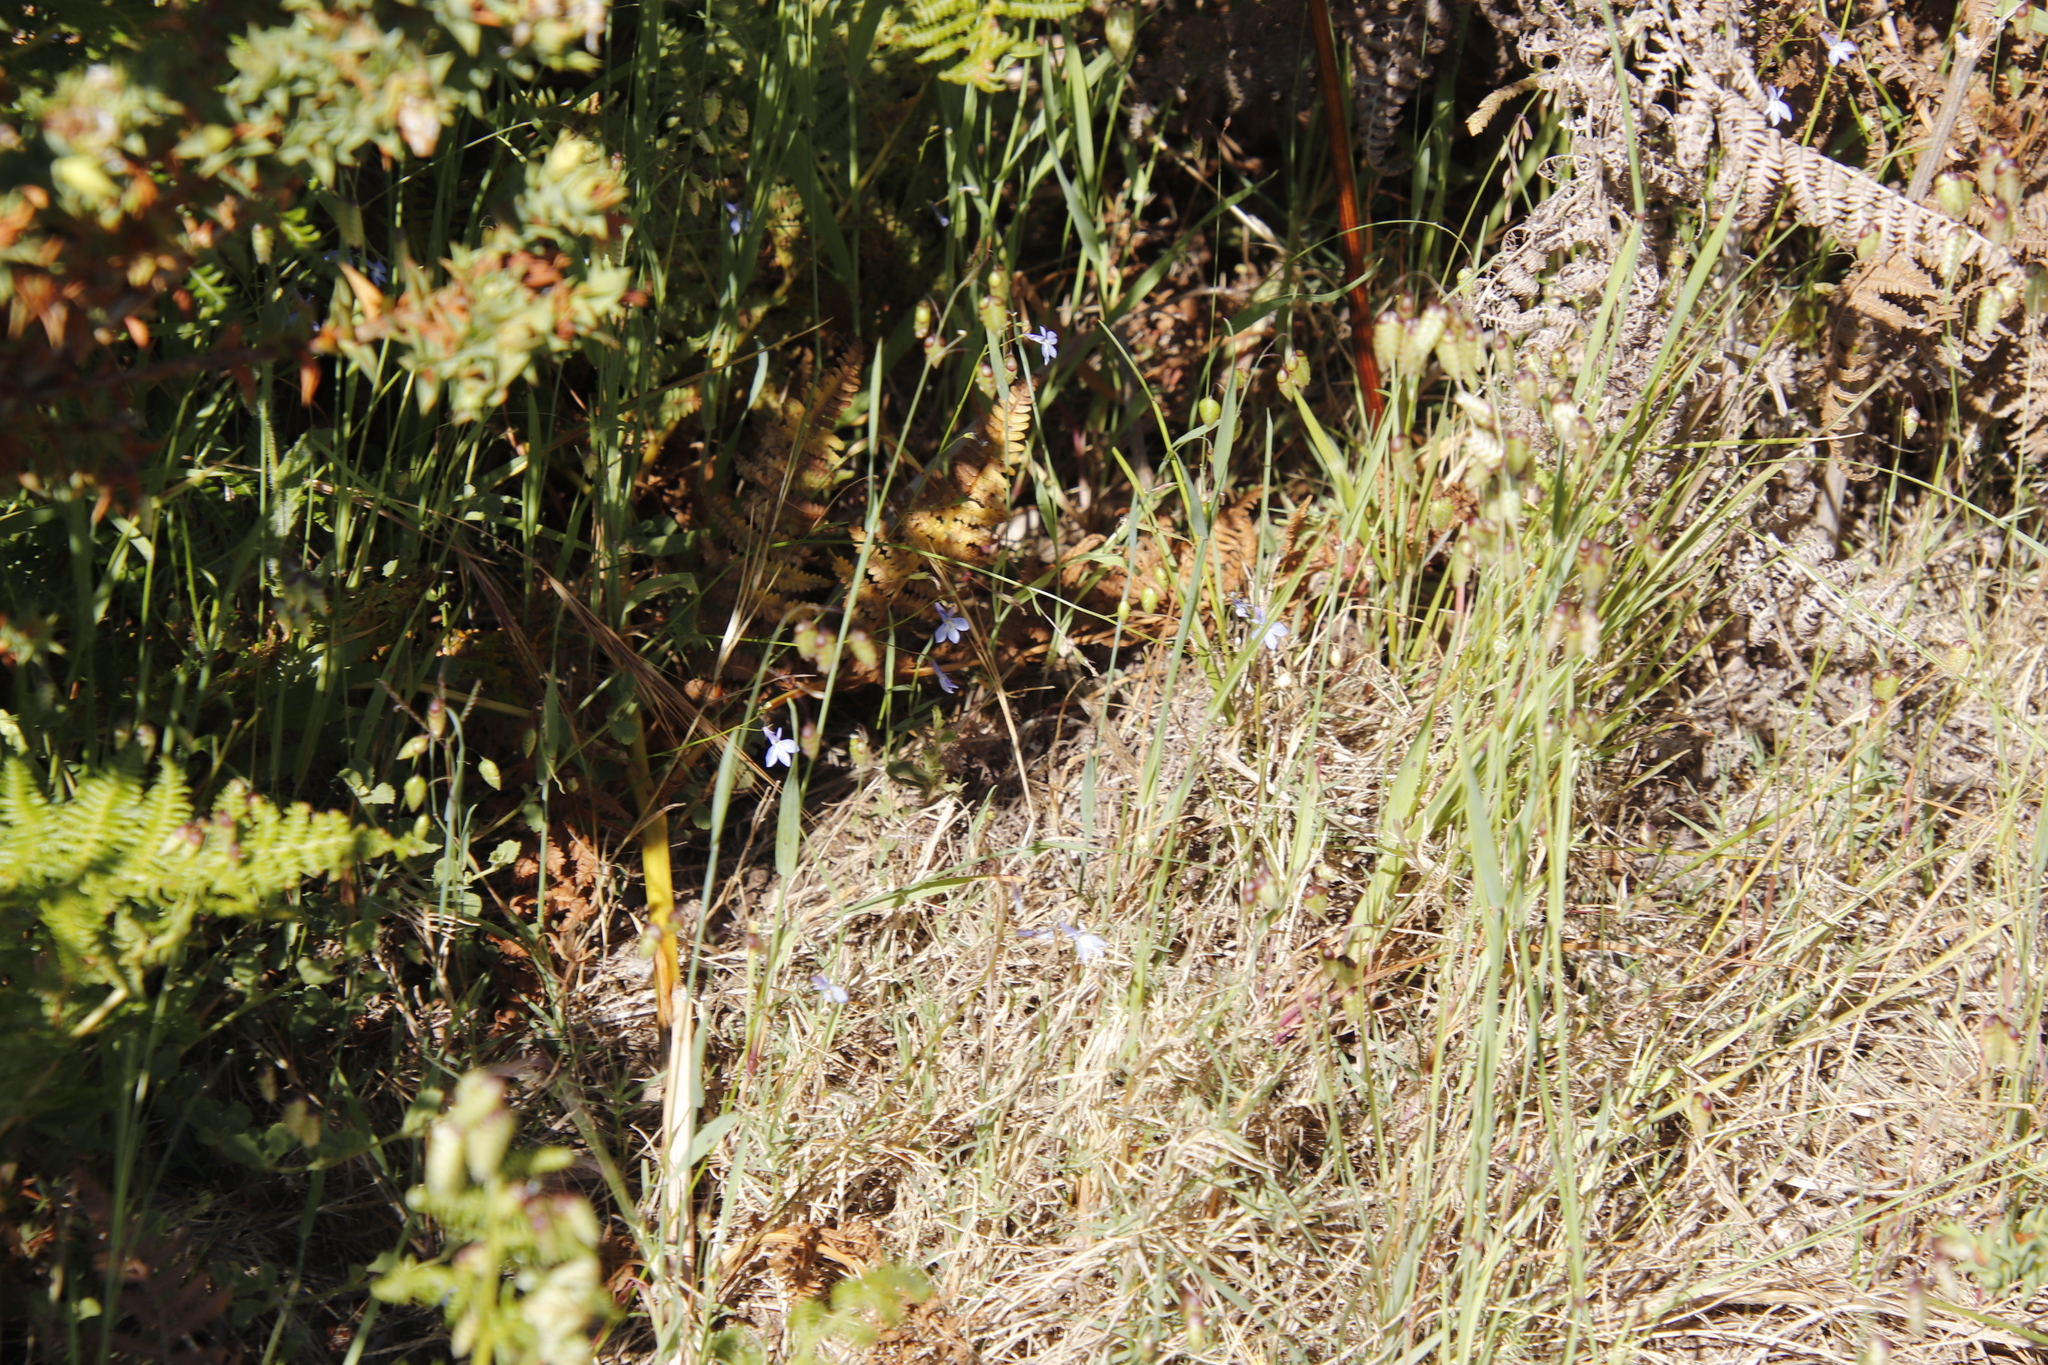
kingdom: Plantae
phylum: Tracheophyta
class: Magnoliopsida
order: Asterales
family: Campanulaceae
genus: Lobelia
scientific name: Lobelia erinus
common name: Edging lobelia
